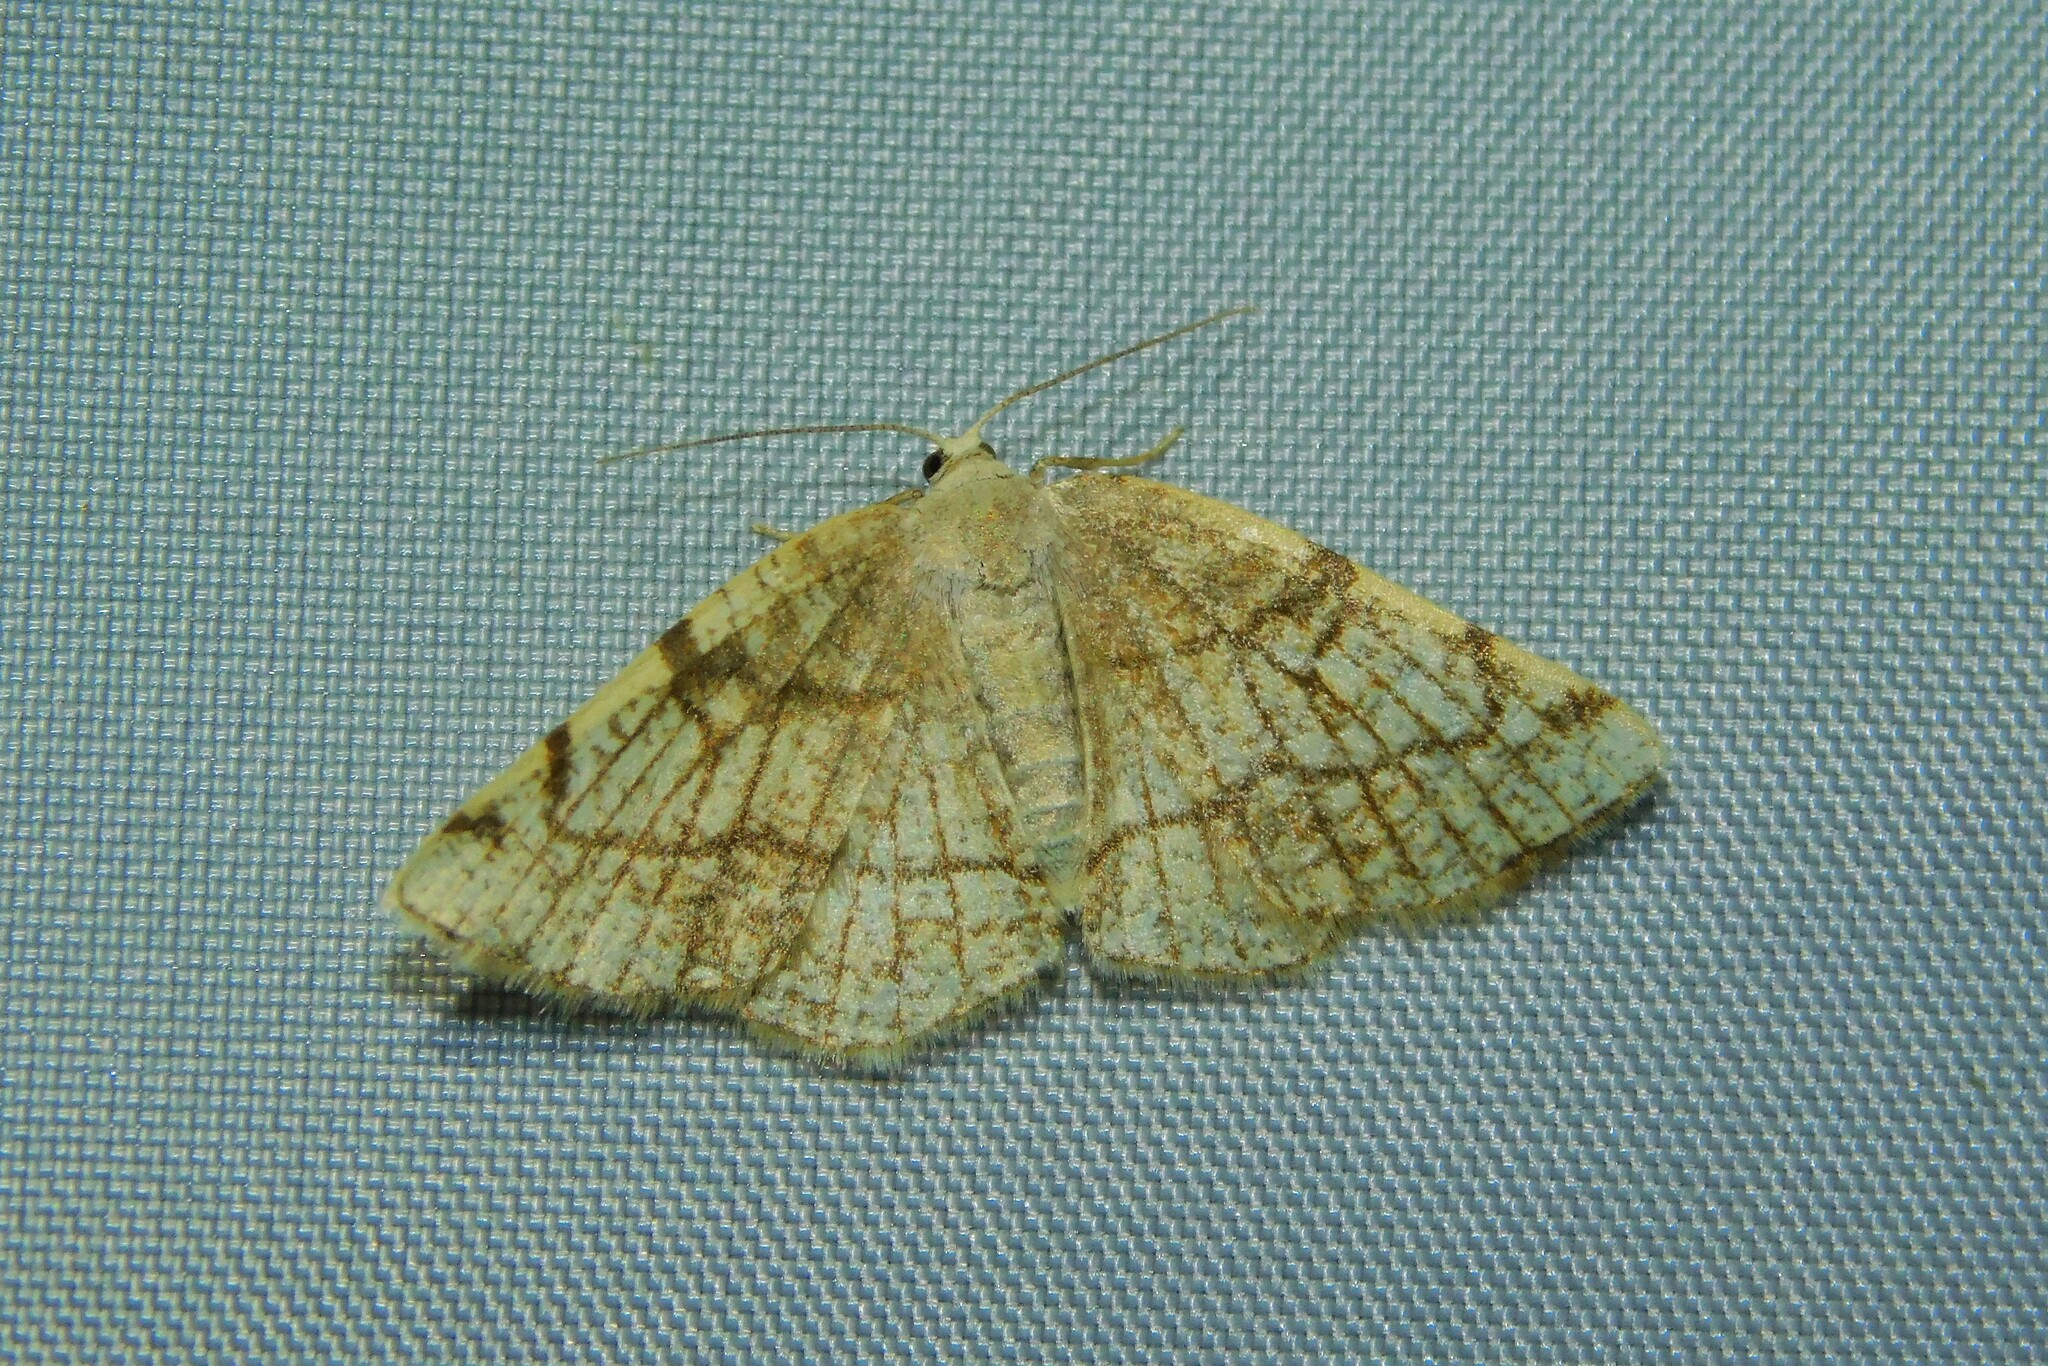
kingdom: Animalia
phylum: Arthropoda
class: Insecta
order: Lepidoptera
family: Geometridae
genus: Stegania
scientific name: Stegania trimaculata
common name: Dorset cream wave
